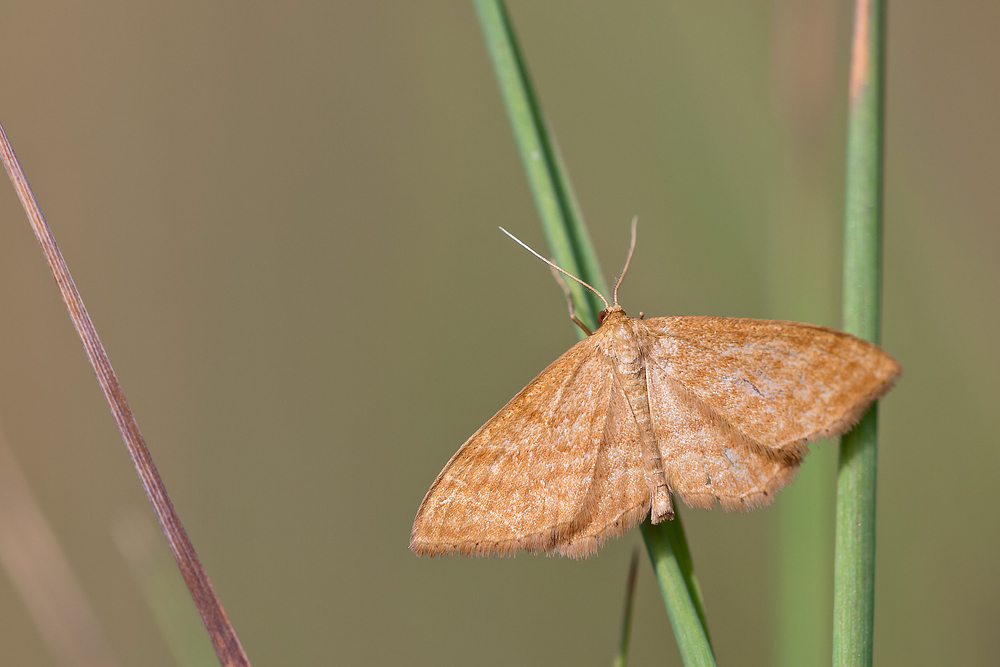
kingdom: Animalia
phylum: Arthropoda
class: Insecta
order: Lepidoptera
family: Geometridae
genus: Idaea
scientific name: Idaea ochrata
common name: Bright wave
